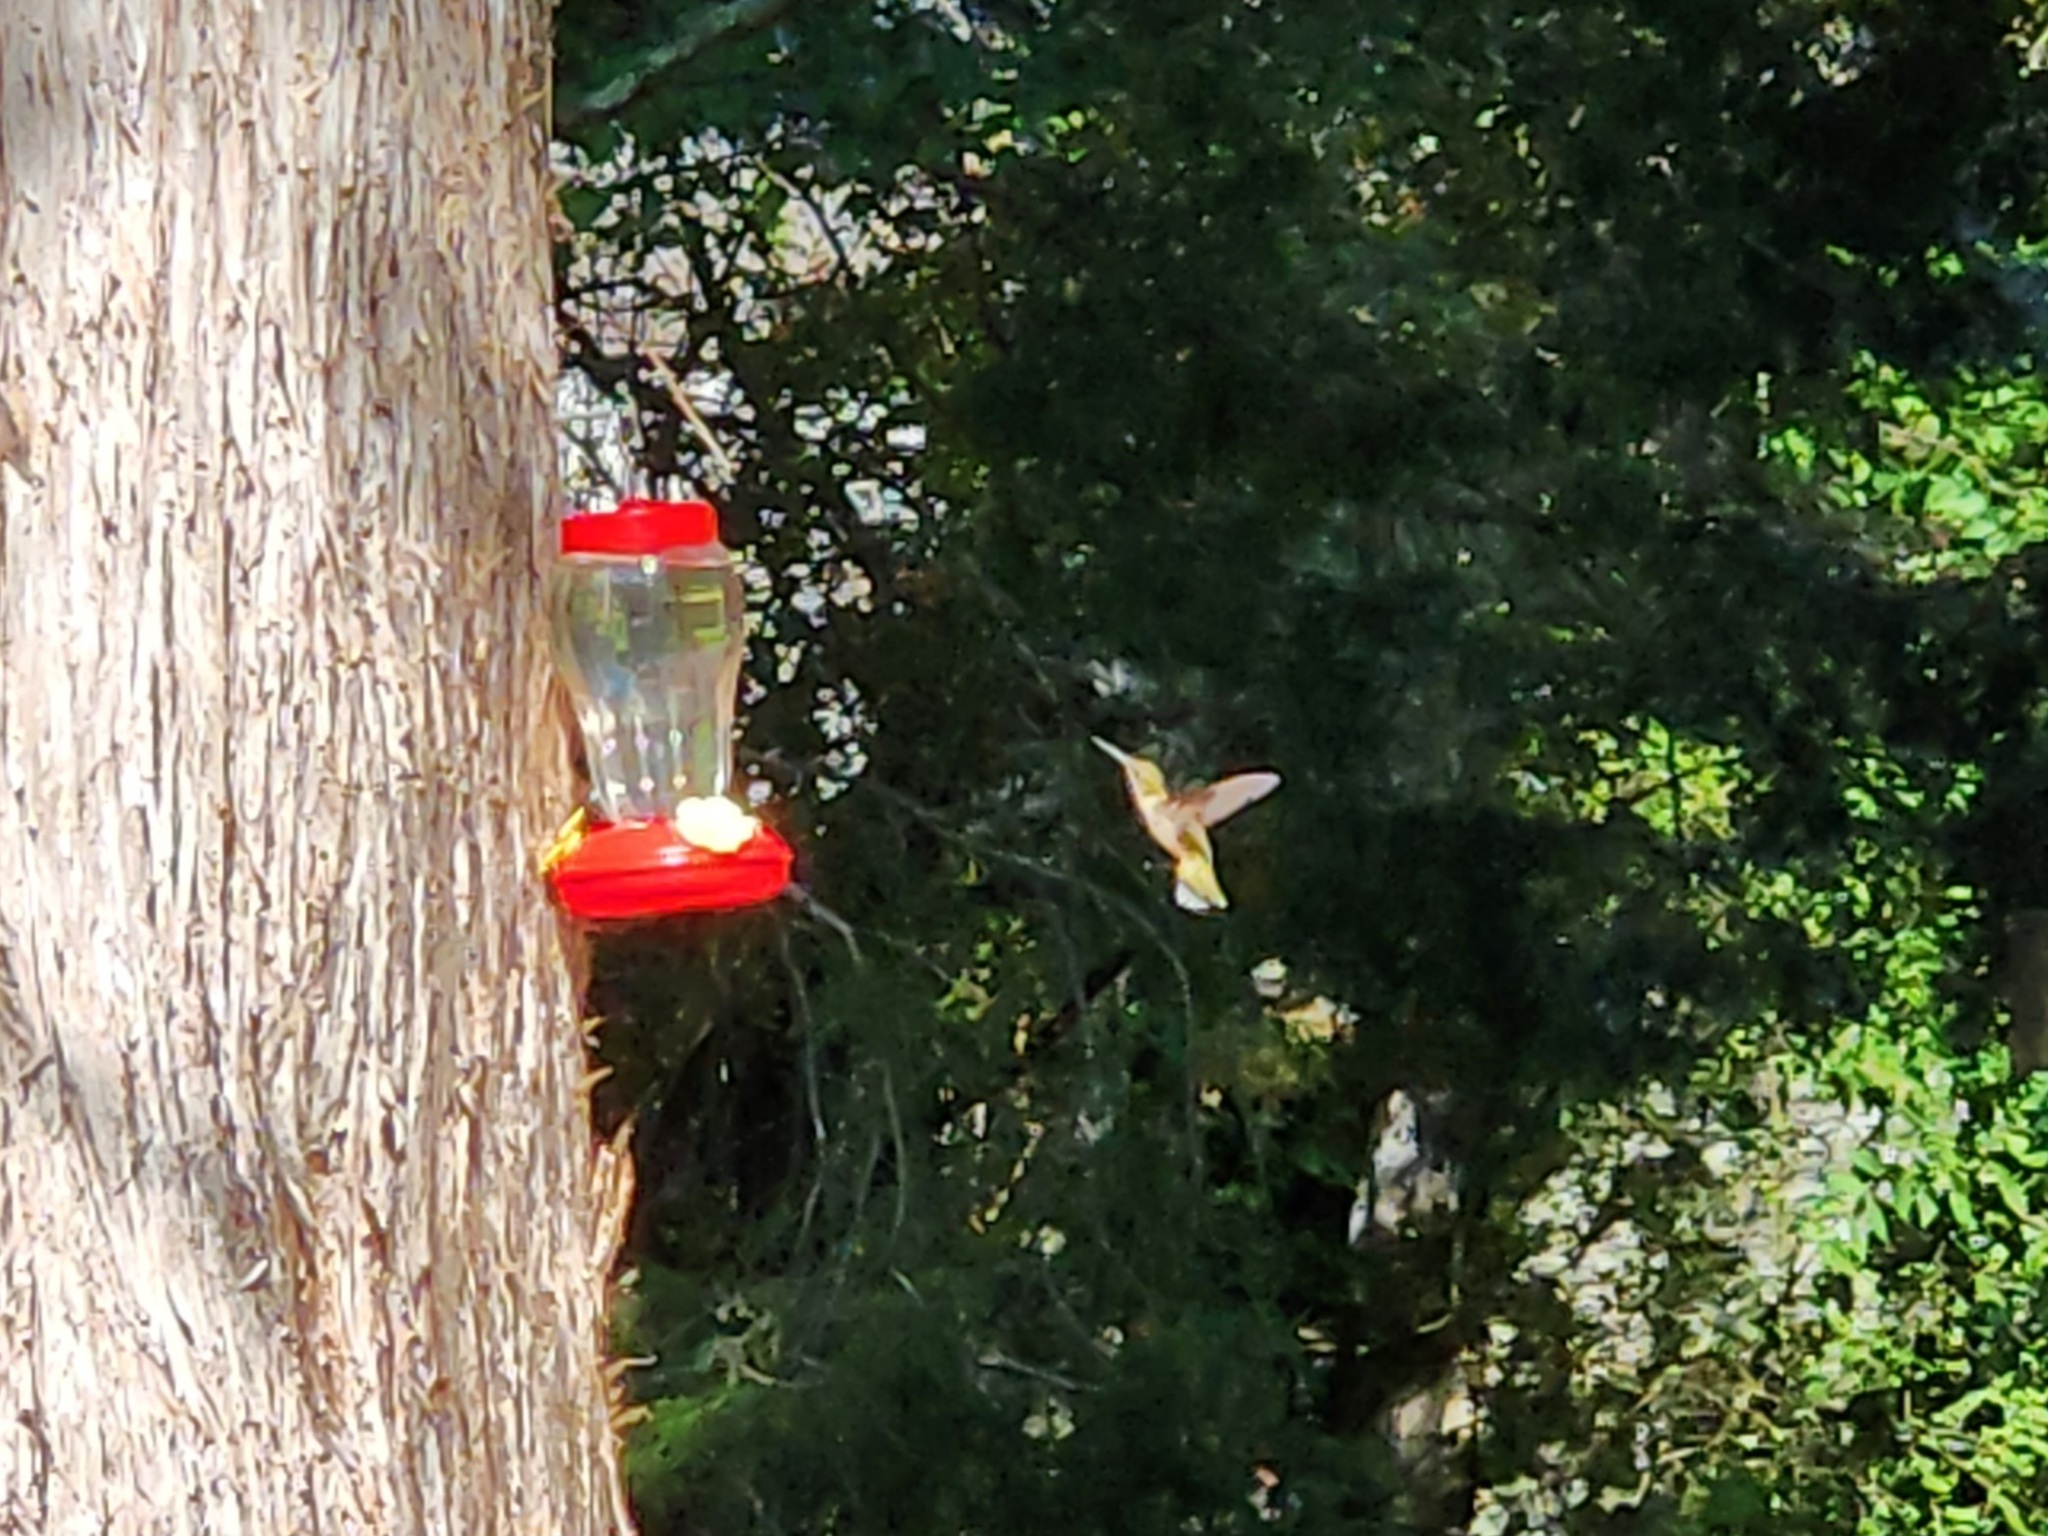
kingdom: Animalia
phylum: Chordata
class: Aves
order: Apodiformes
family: Trochilidae
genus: Archilochus
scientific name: Archilochus colubris
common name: Ruby-throated hummingbird
